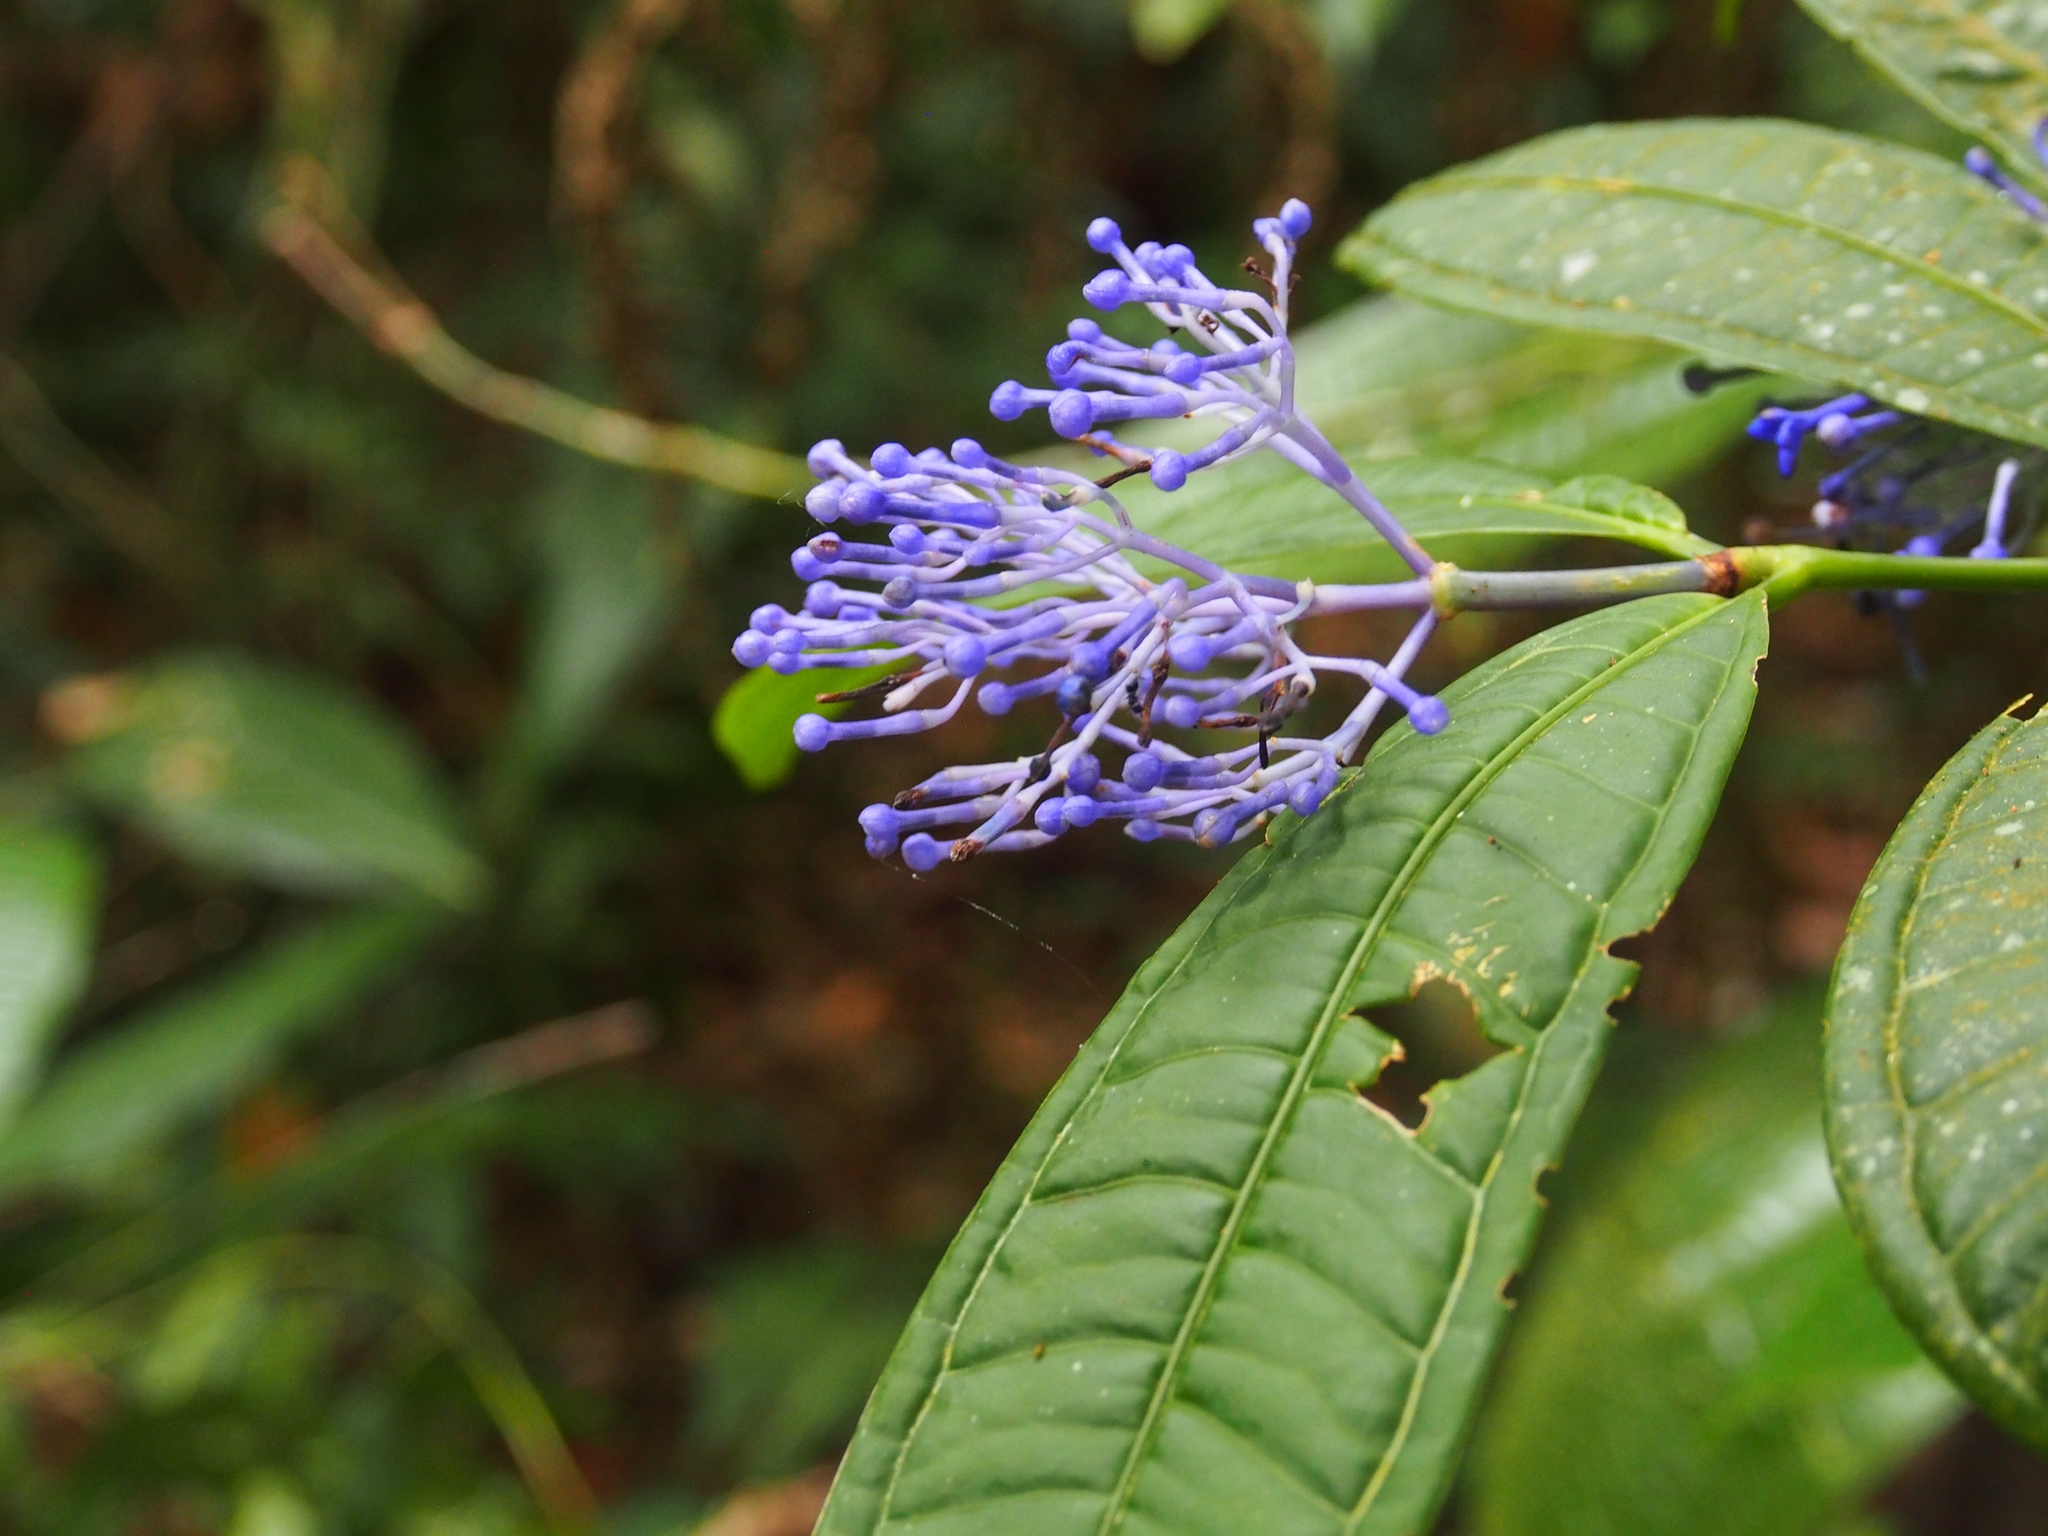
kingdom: Plantae
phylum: Tracheophyta
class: Magnoliopsida
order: Gentianales
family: Rubiaceae
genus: Faramea
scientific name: Faramea suerrensis
